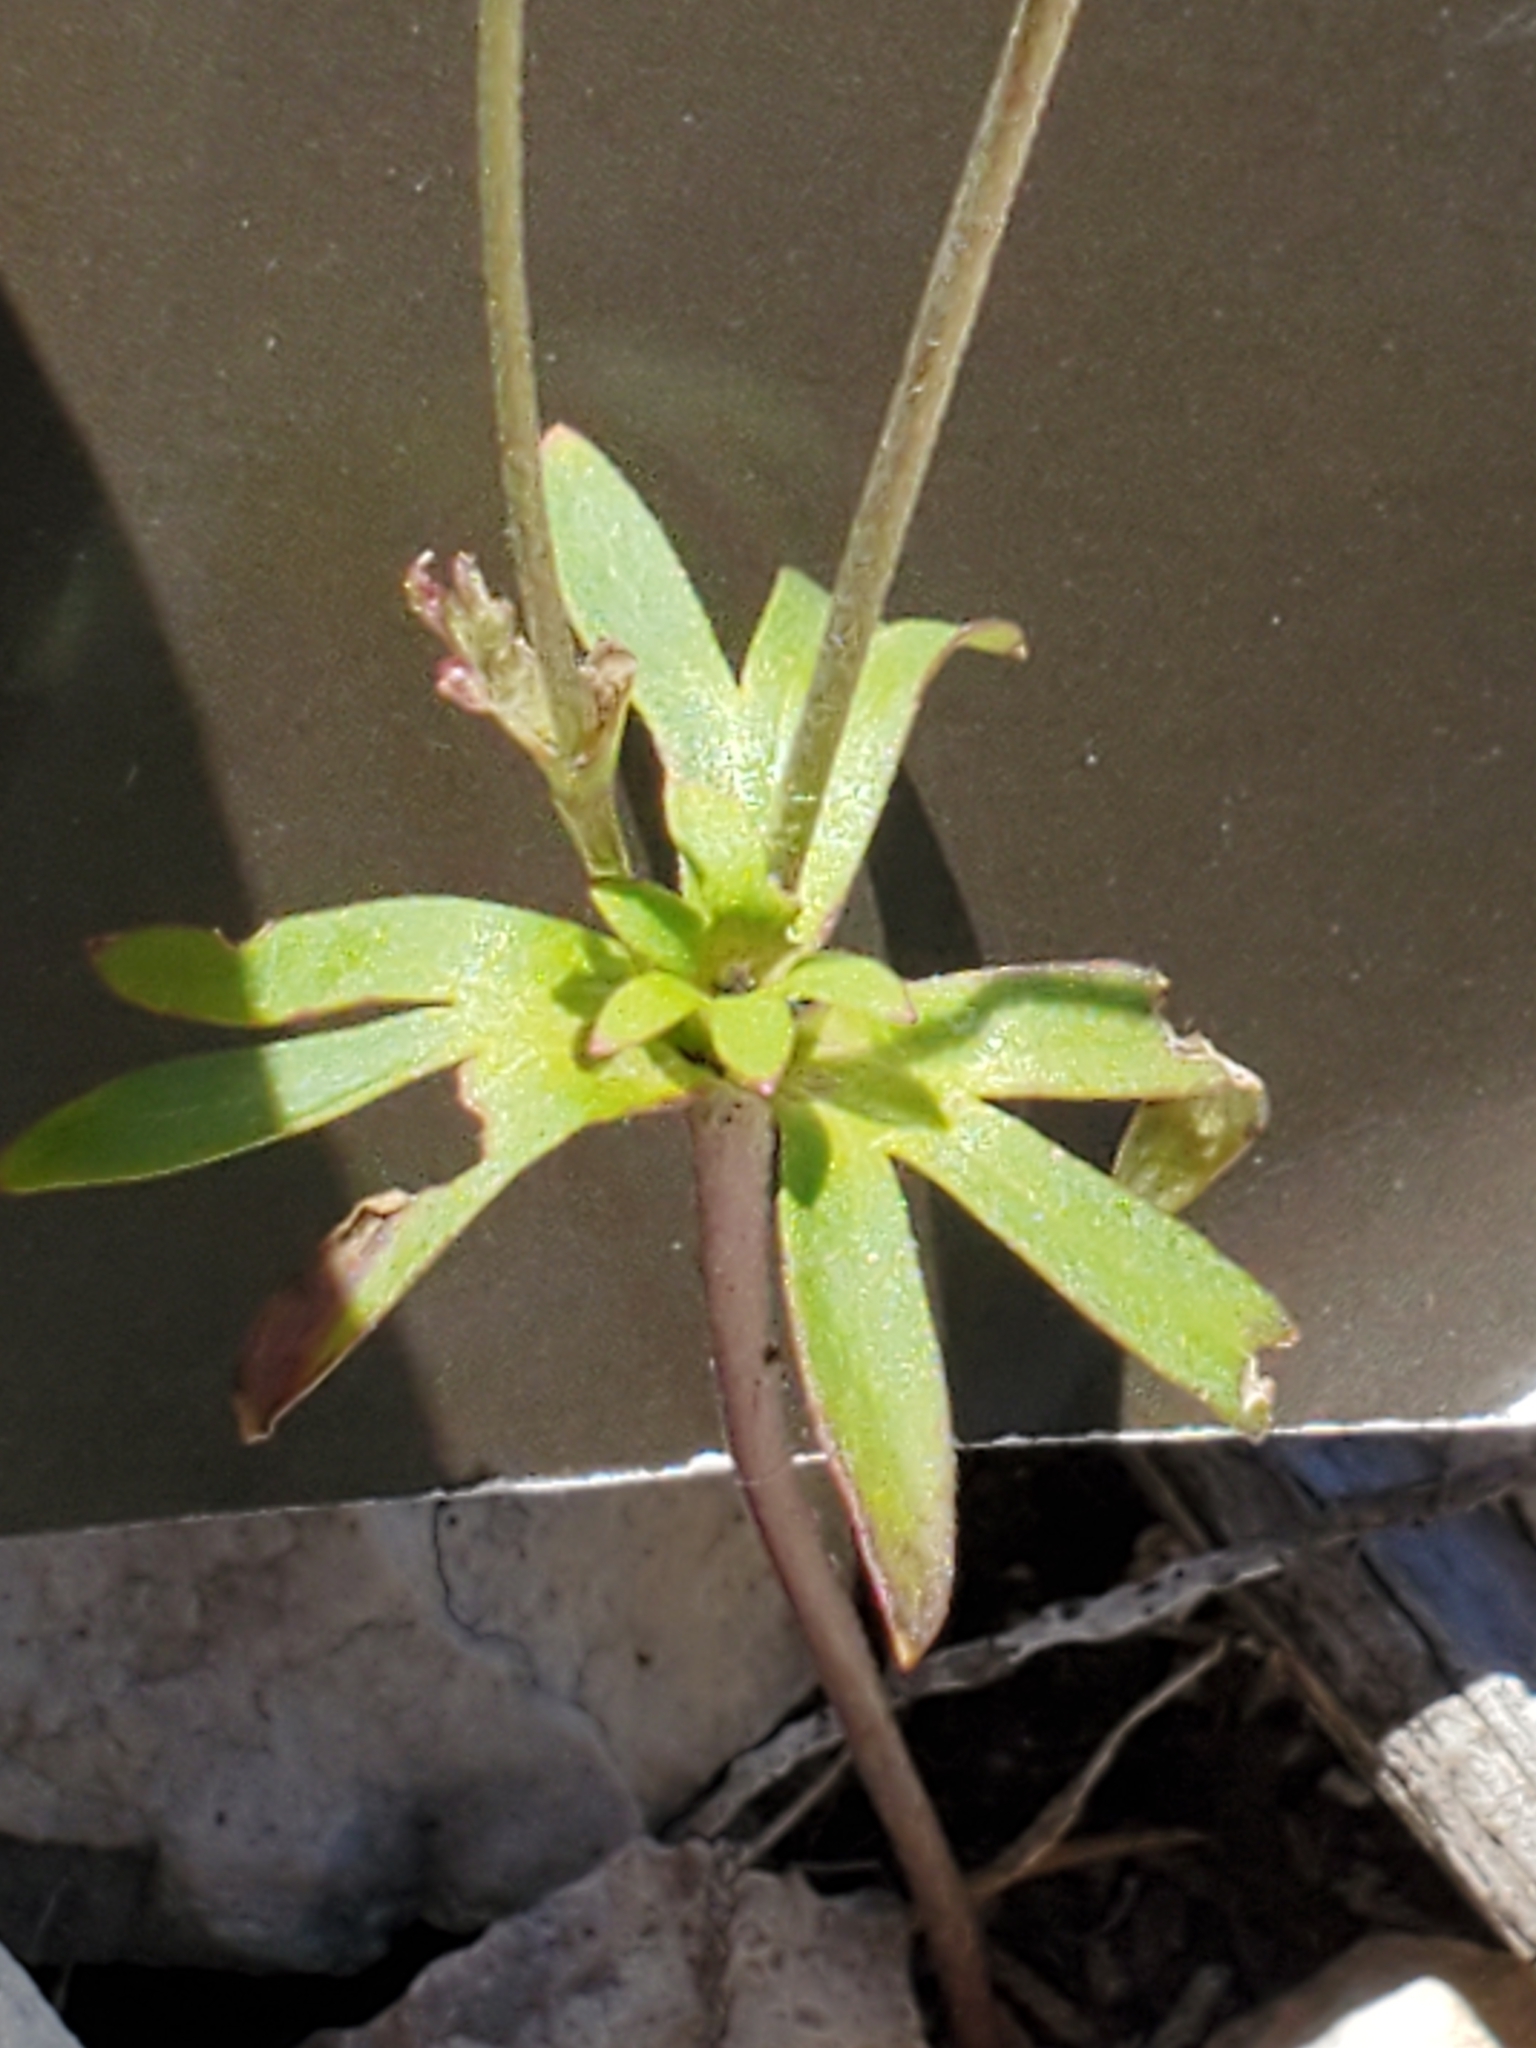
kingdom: Plantae
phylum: Tracheophyta
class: Magnoliopsida
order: Ranunculales
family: Ranunculaceae
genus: Anemone
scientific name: Anemone edwardsiana
